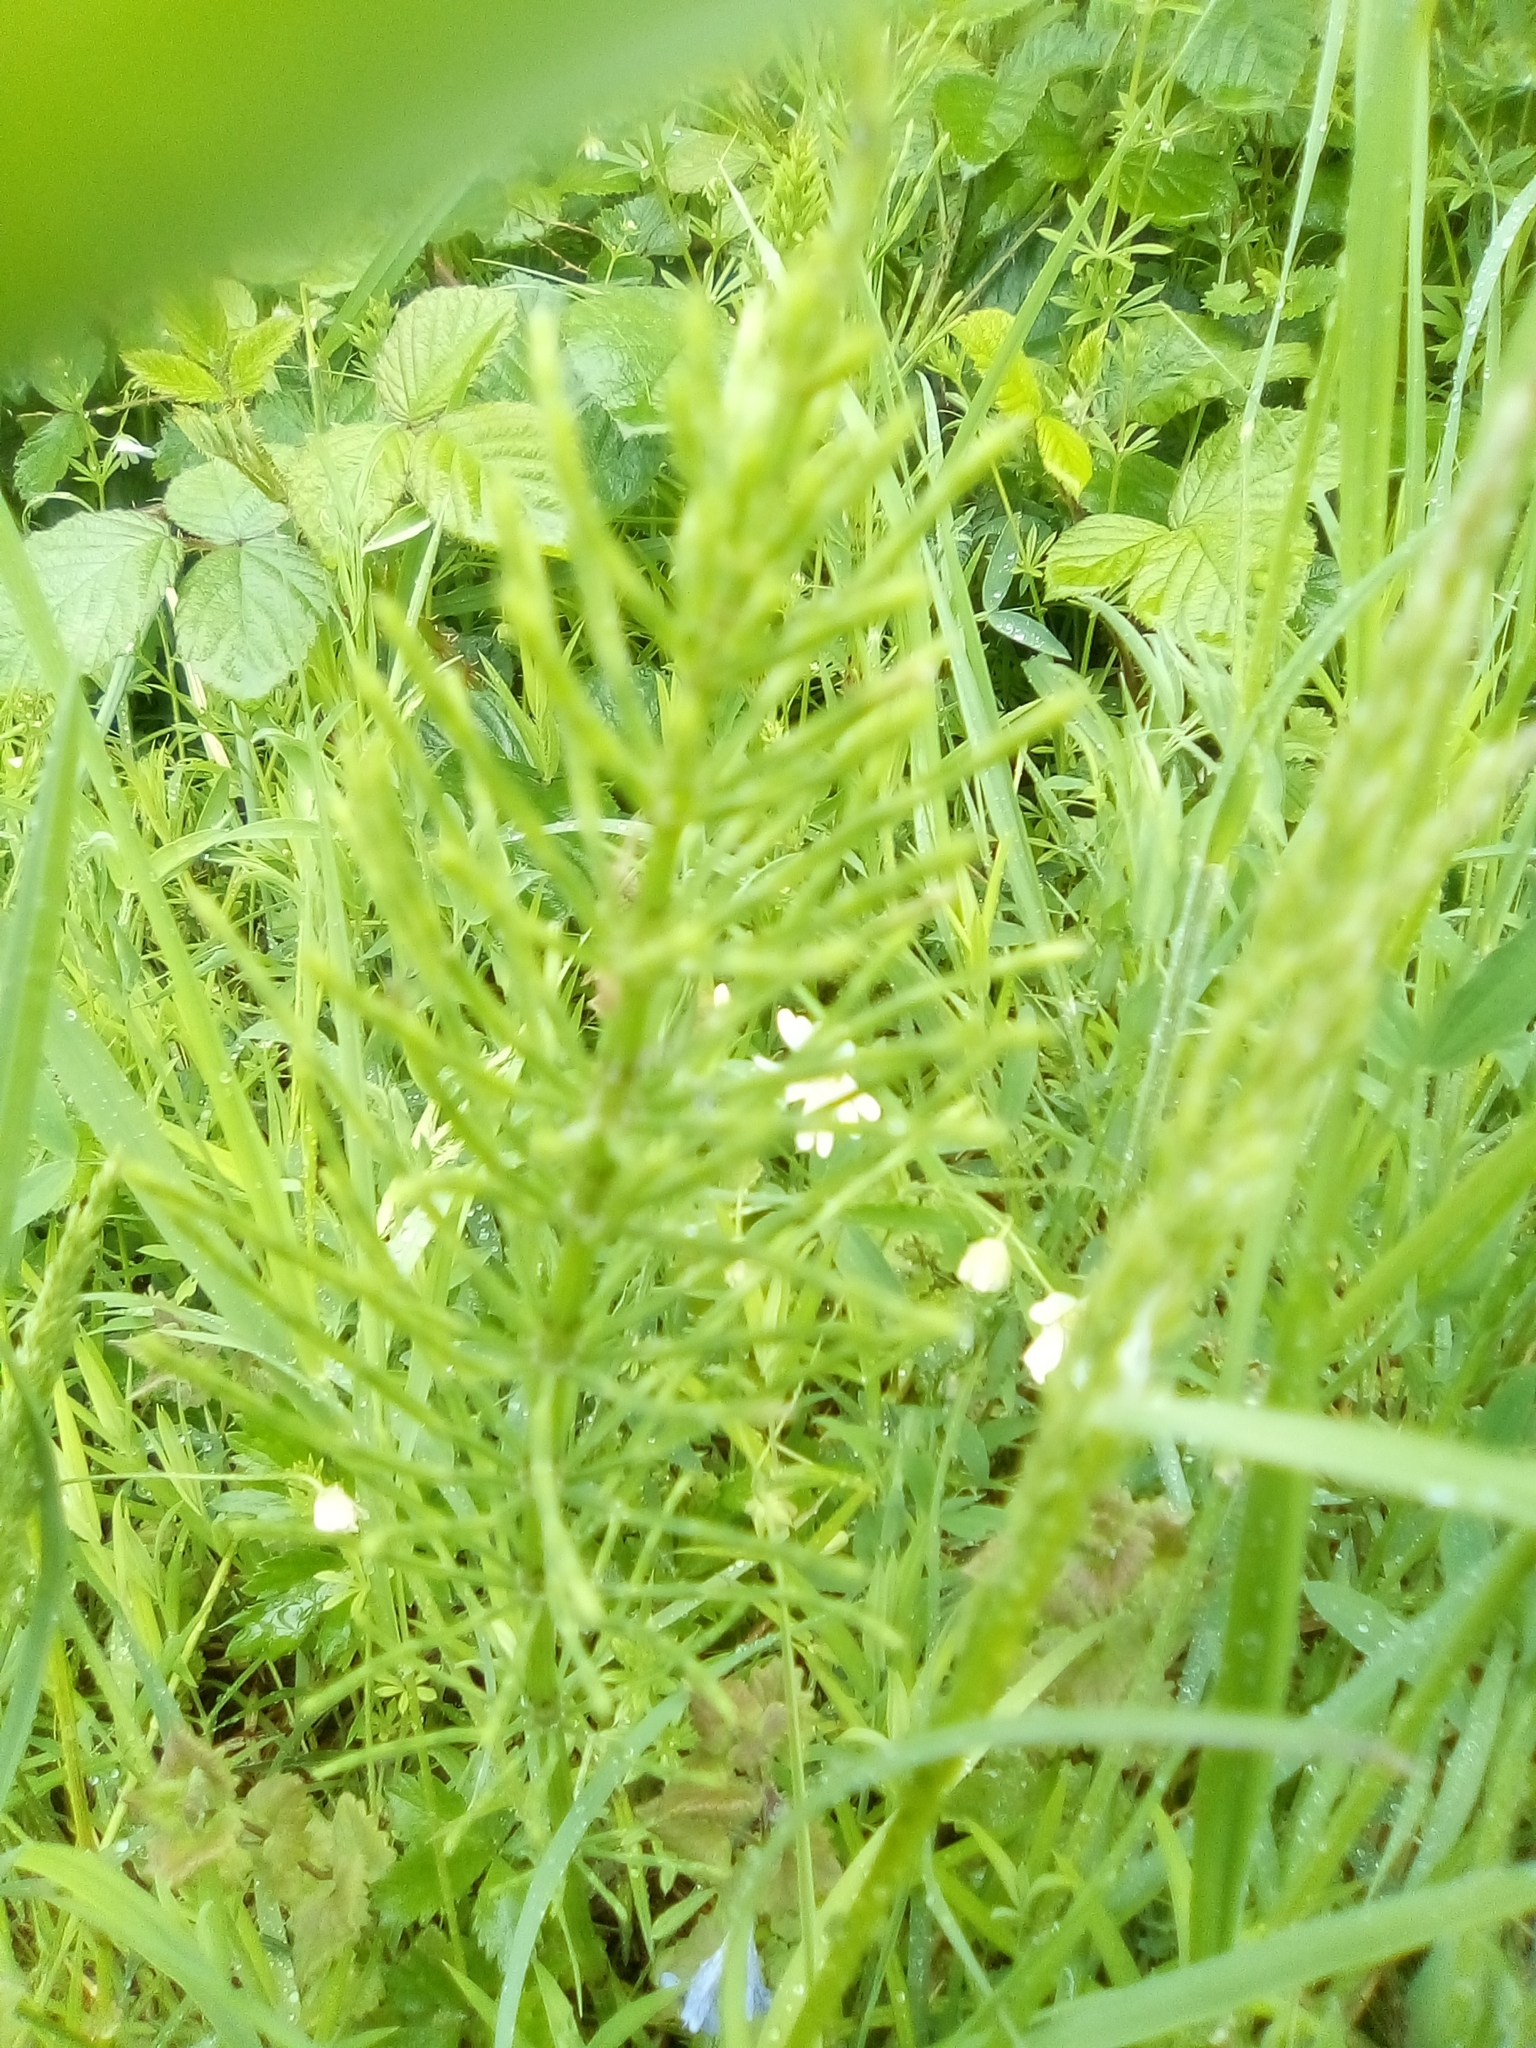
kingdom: Plantae
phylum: Tracheophyta
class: Polypodiopsida
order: Equisetales
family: Equisetaceae
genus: Equisetum
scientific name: Equisetum arvense
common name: Field horsetail
